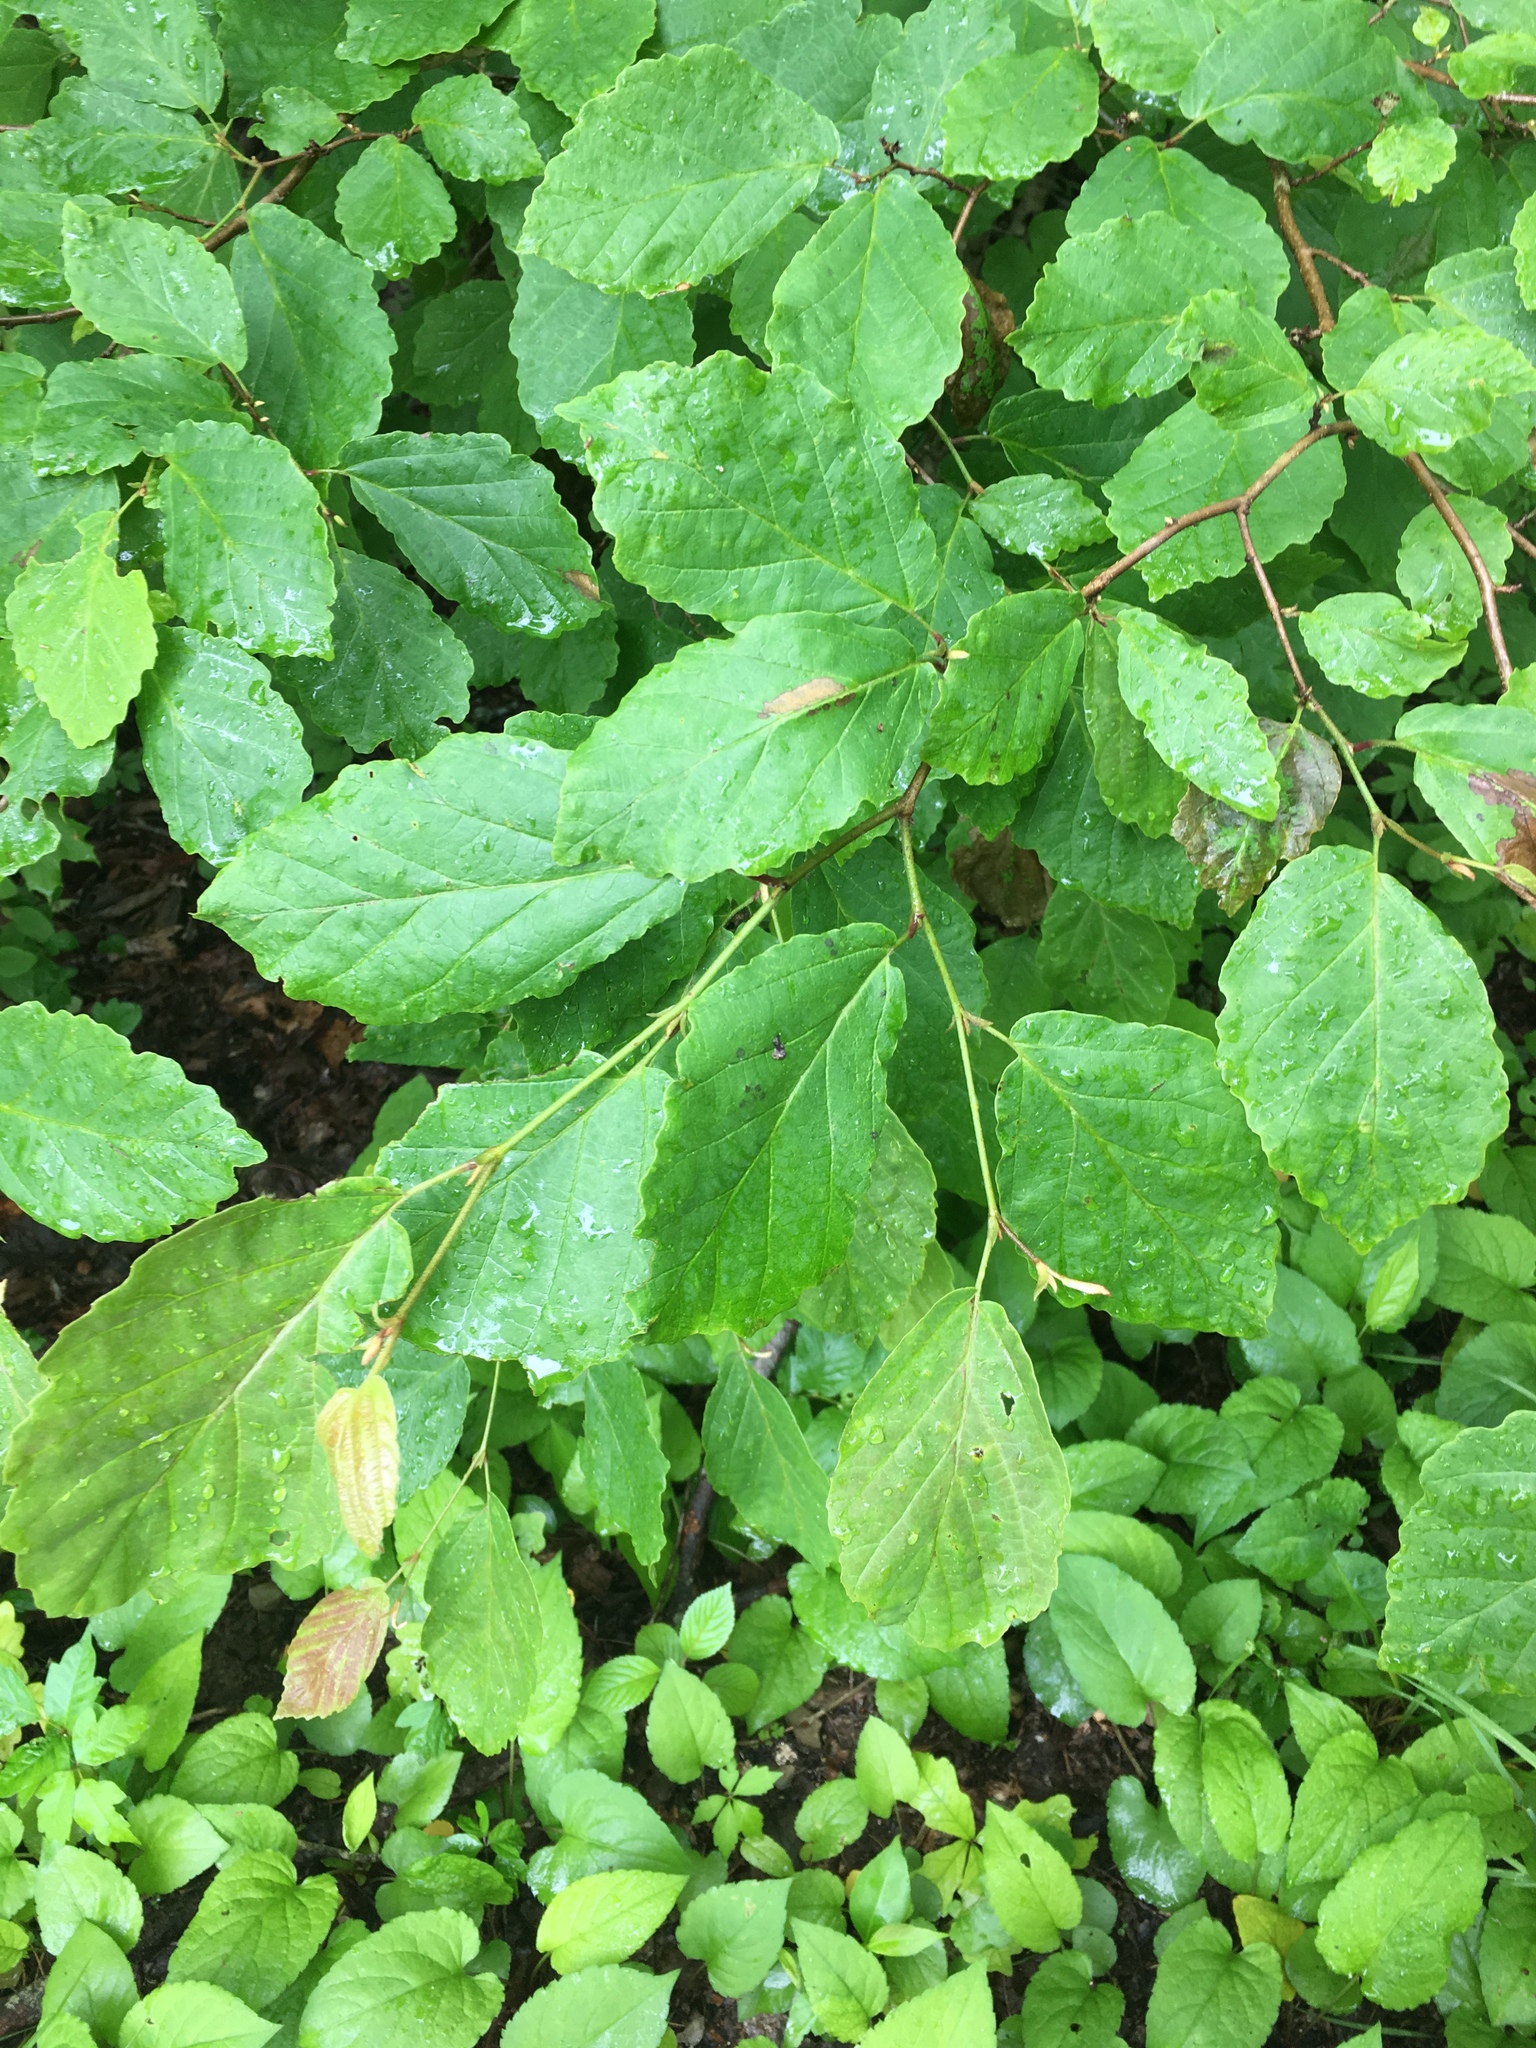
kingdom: Plantae
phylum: Tracheophyta
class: Magnoliopsida
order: Saxifragales
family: Hamamelidaceae
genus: Hamamelis
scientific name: Hamamelis virginiana
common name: Witch-hazel
